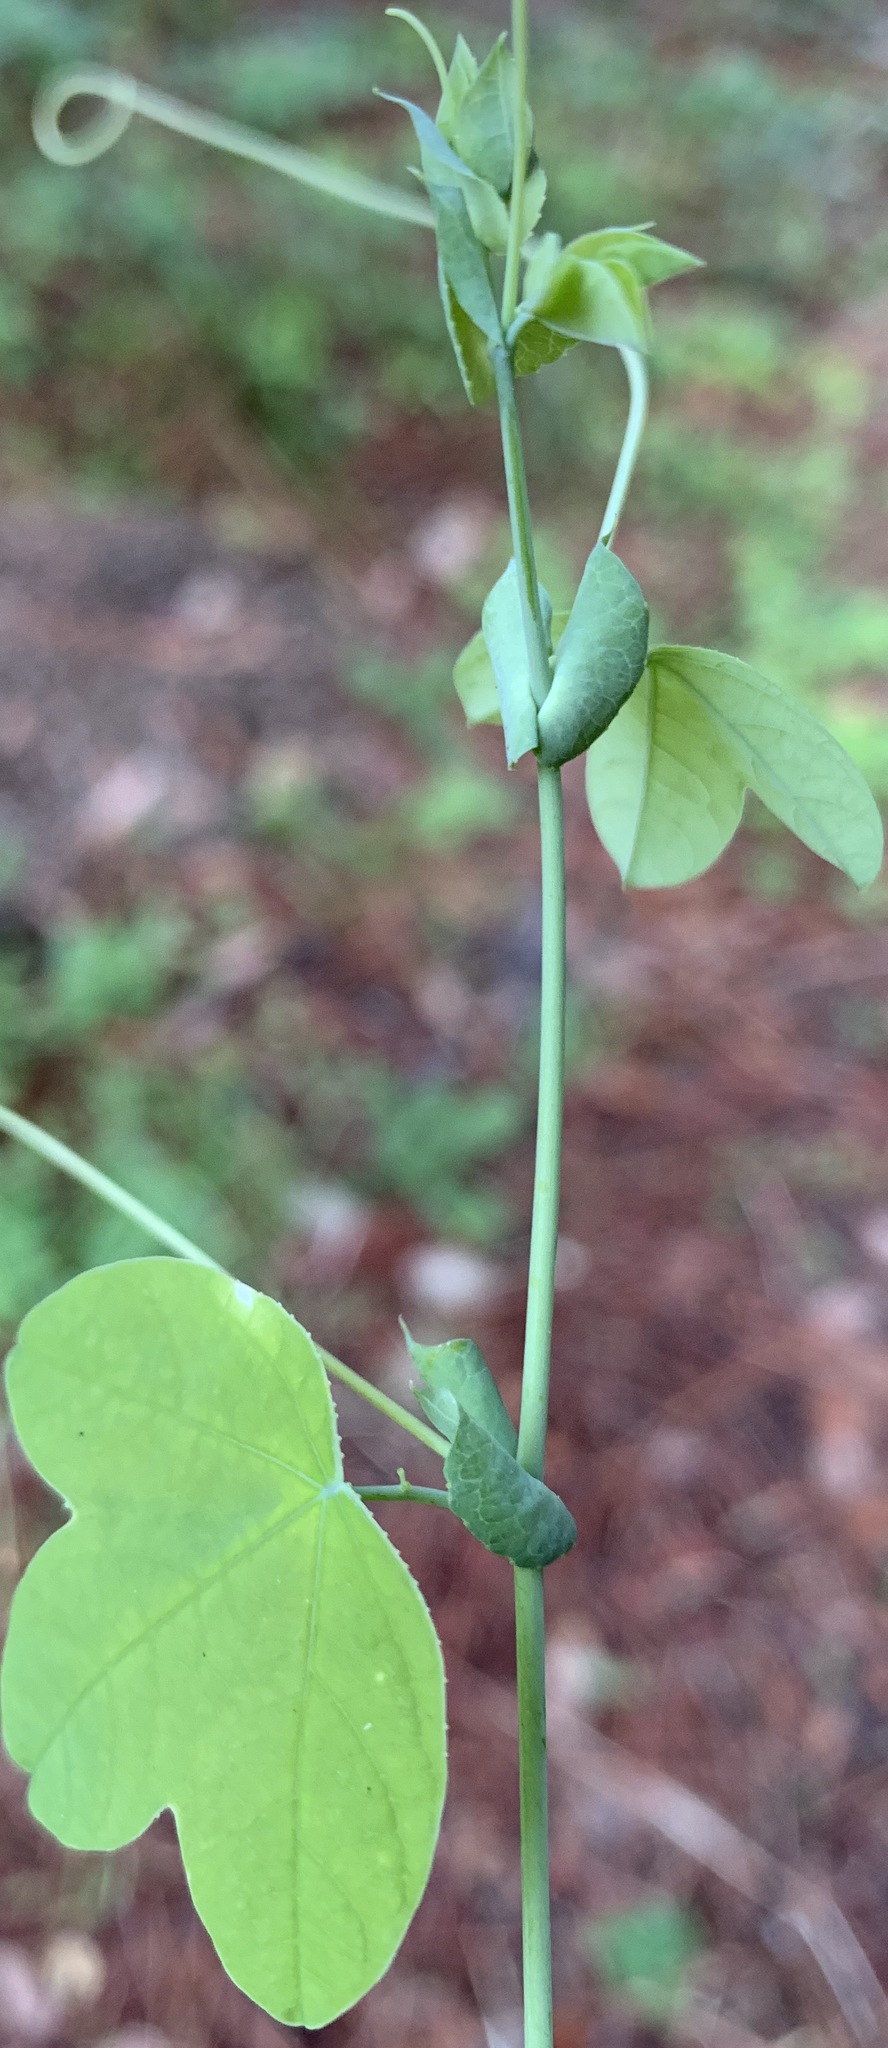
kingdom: Plantae
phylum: Tracheophyta
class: Magnoliopsida
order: Malpighiales
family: Passifloraceae
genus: Passiflora
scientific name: Passiflora pallens
